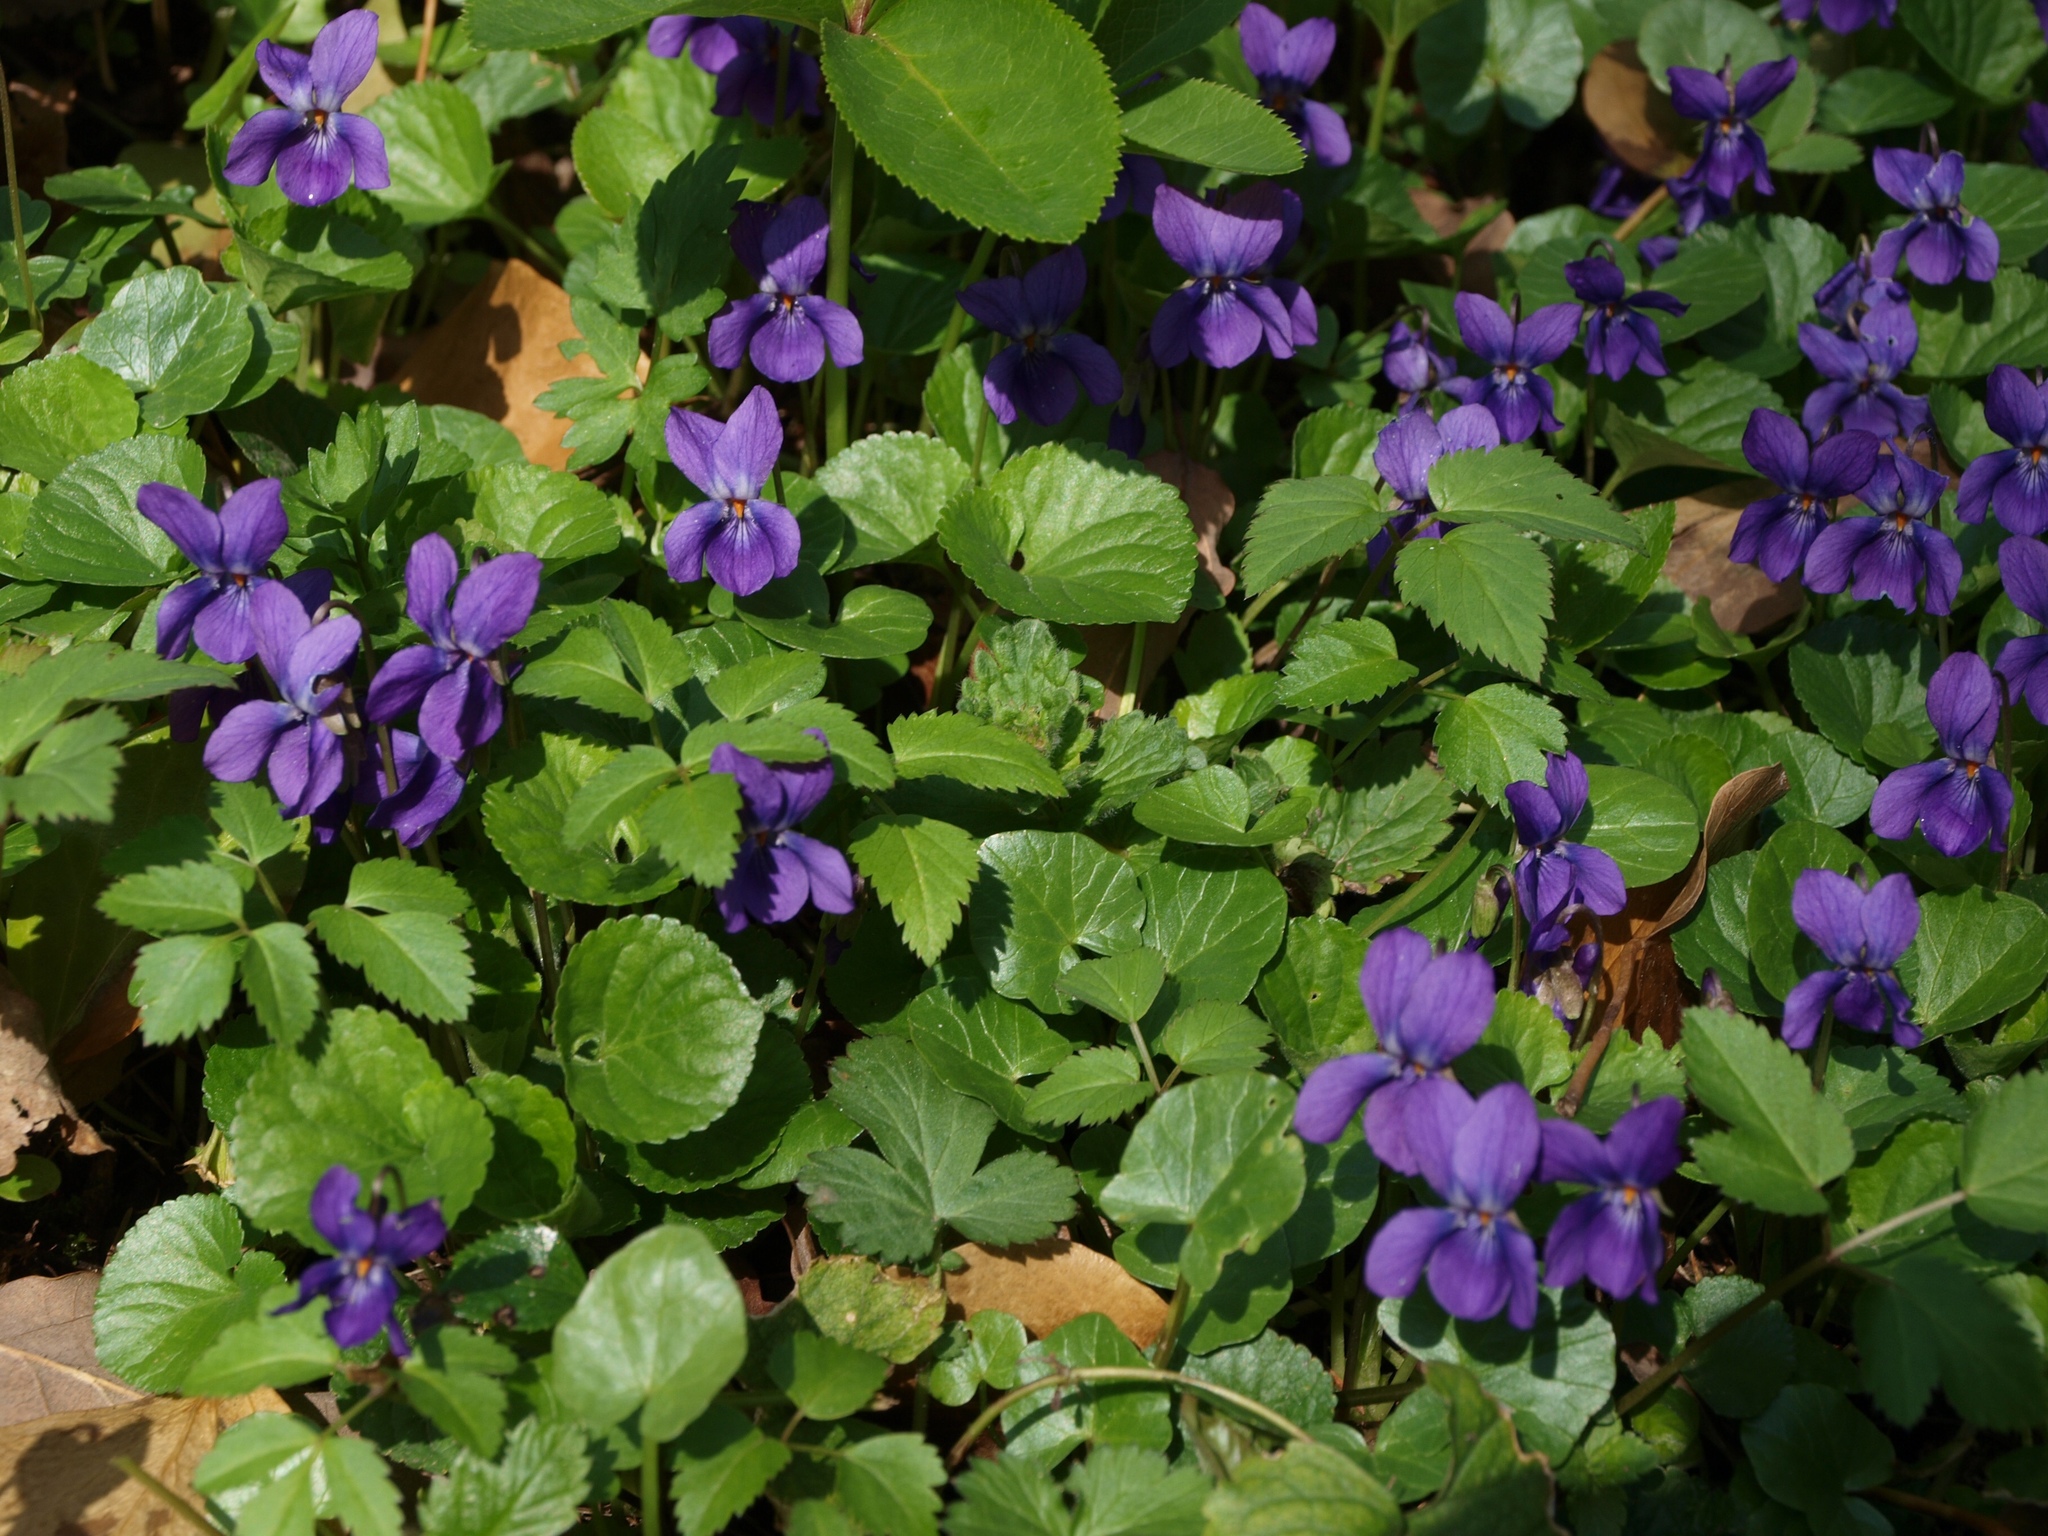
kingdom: Plantae
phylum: Tracheophyta
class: Magnoliopsida
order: Malpighiales
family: Violaceae
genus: Viola
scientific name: Viola odorata
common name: Sweet violet
